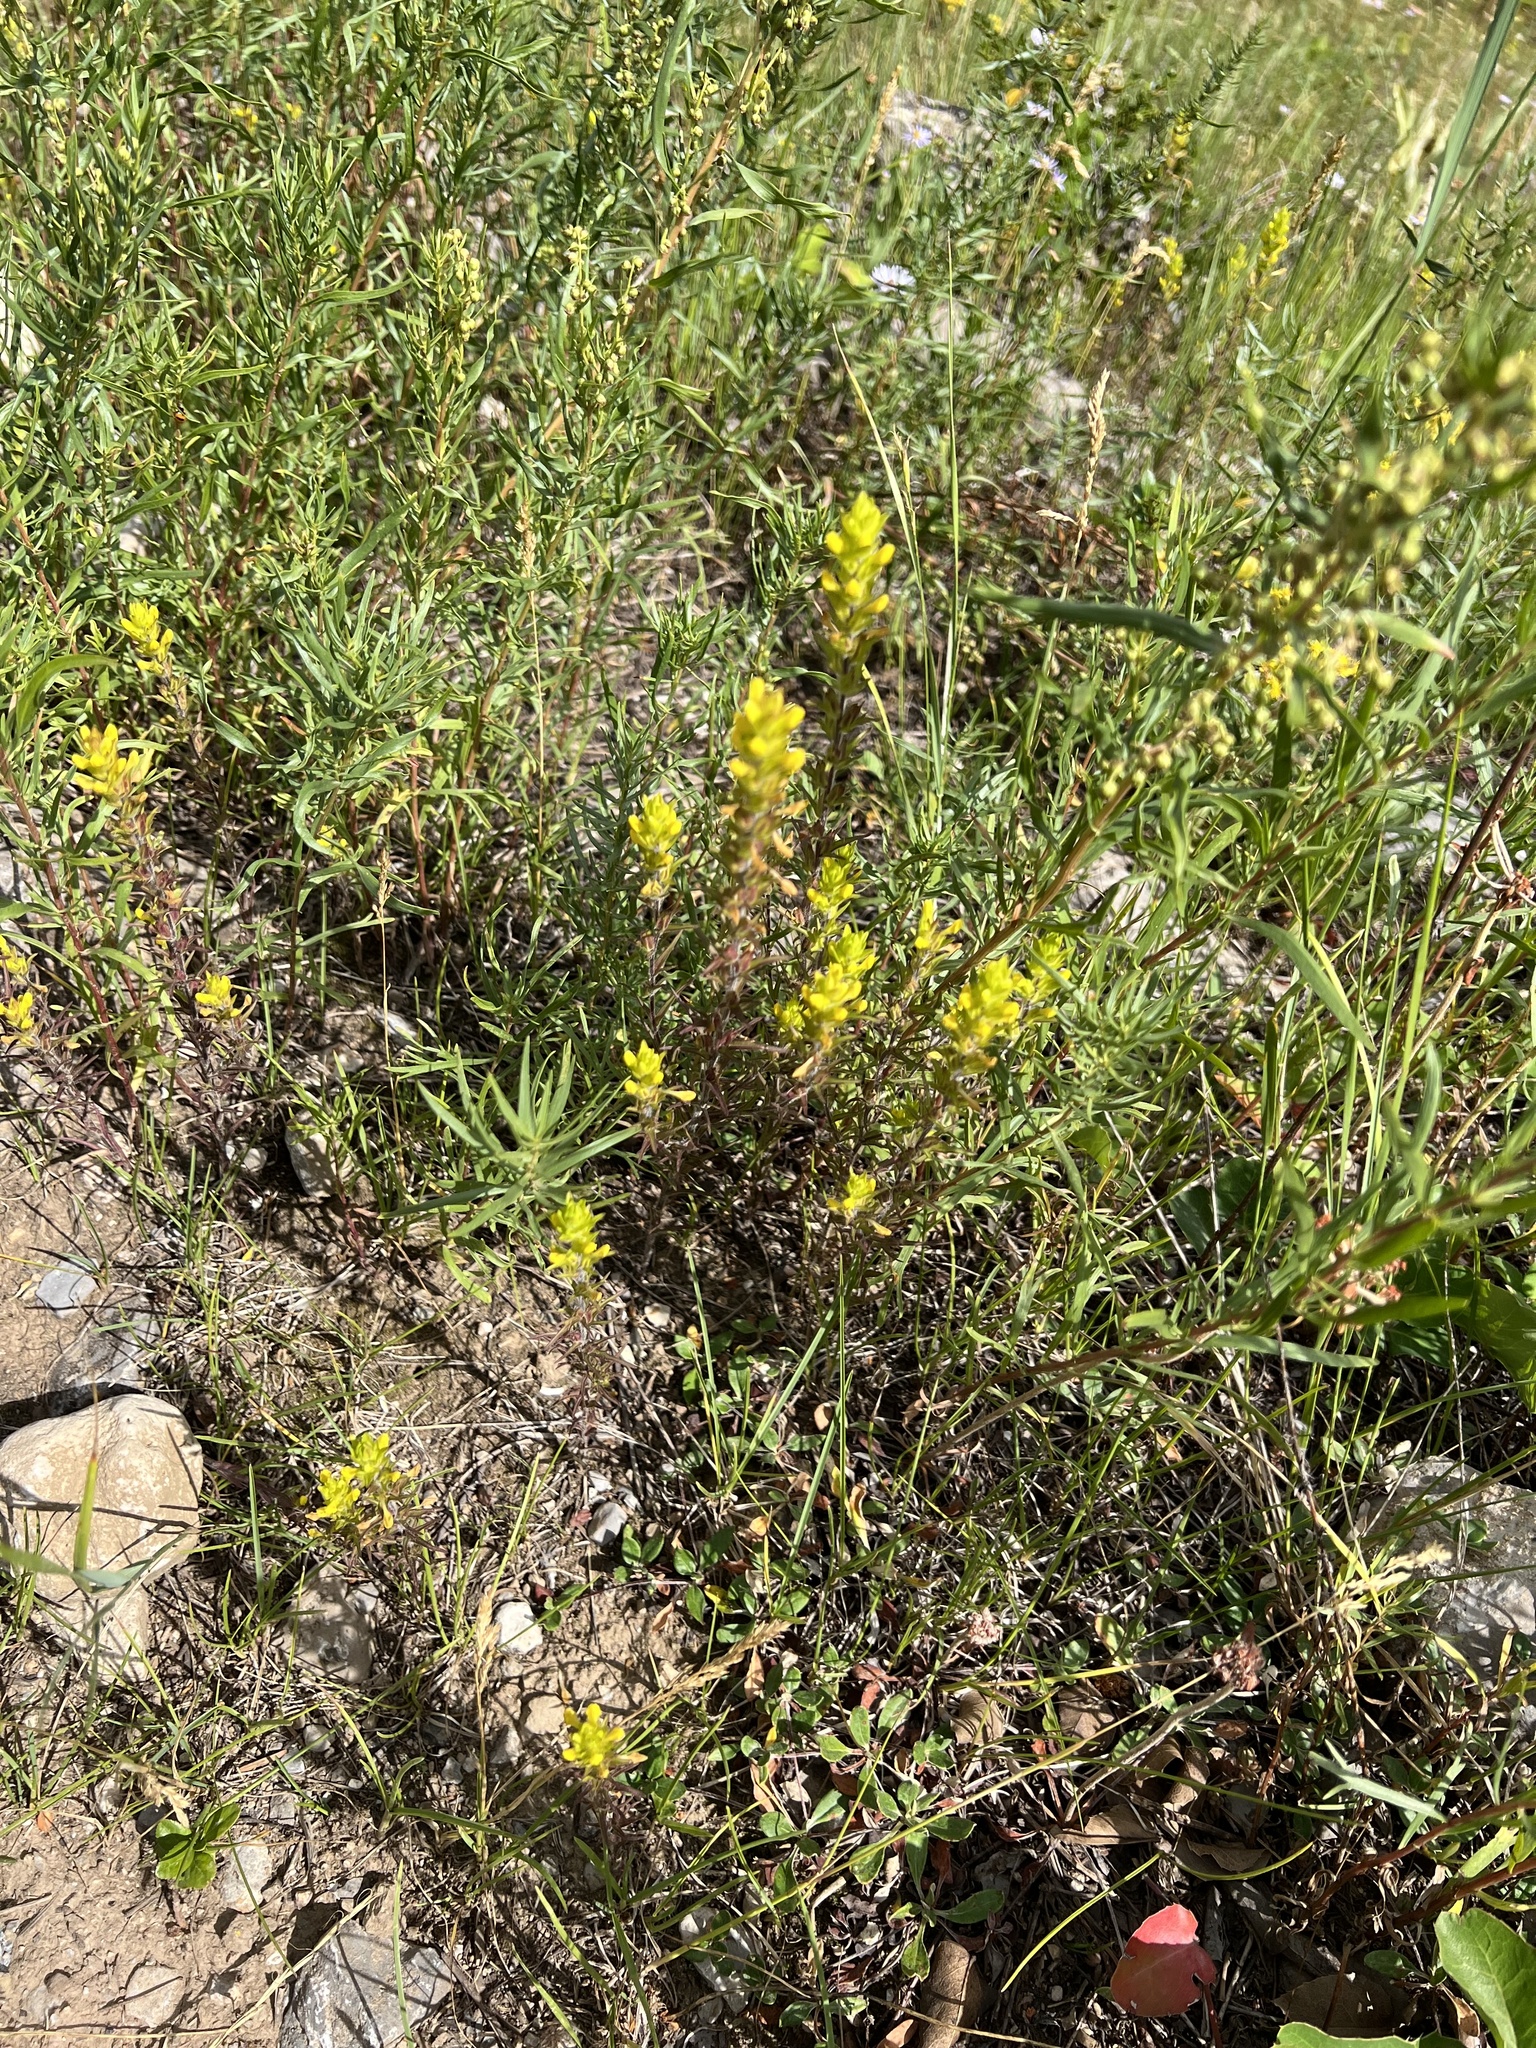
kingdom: Plantae
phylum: Tracheophyta
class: Magnoliopsida
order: Lamiales
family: Orobanchaceae
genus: Orthocarpus
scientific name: Orthocarpus luteus
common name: Golden-tongue owl's-clover
